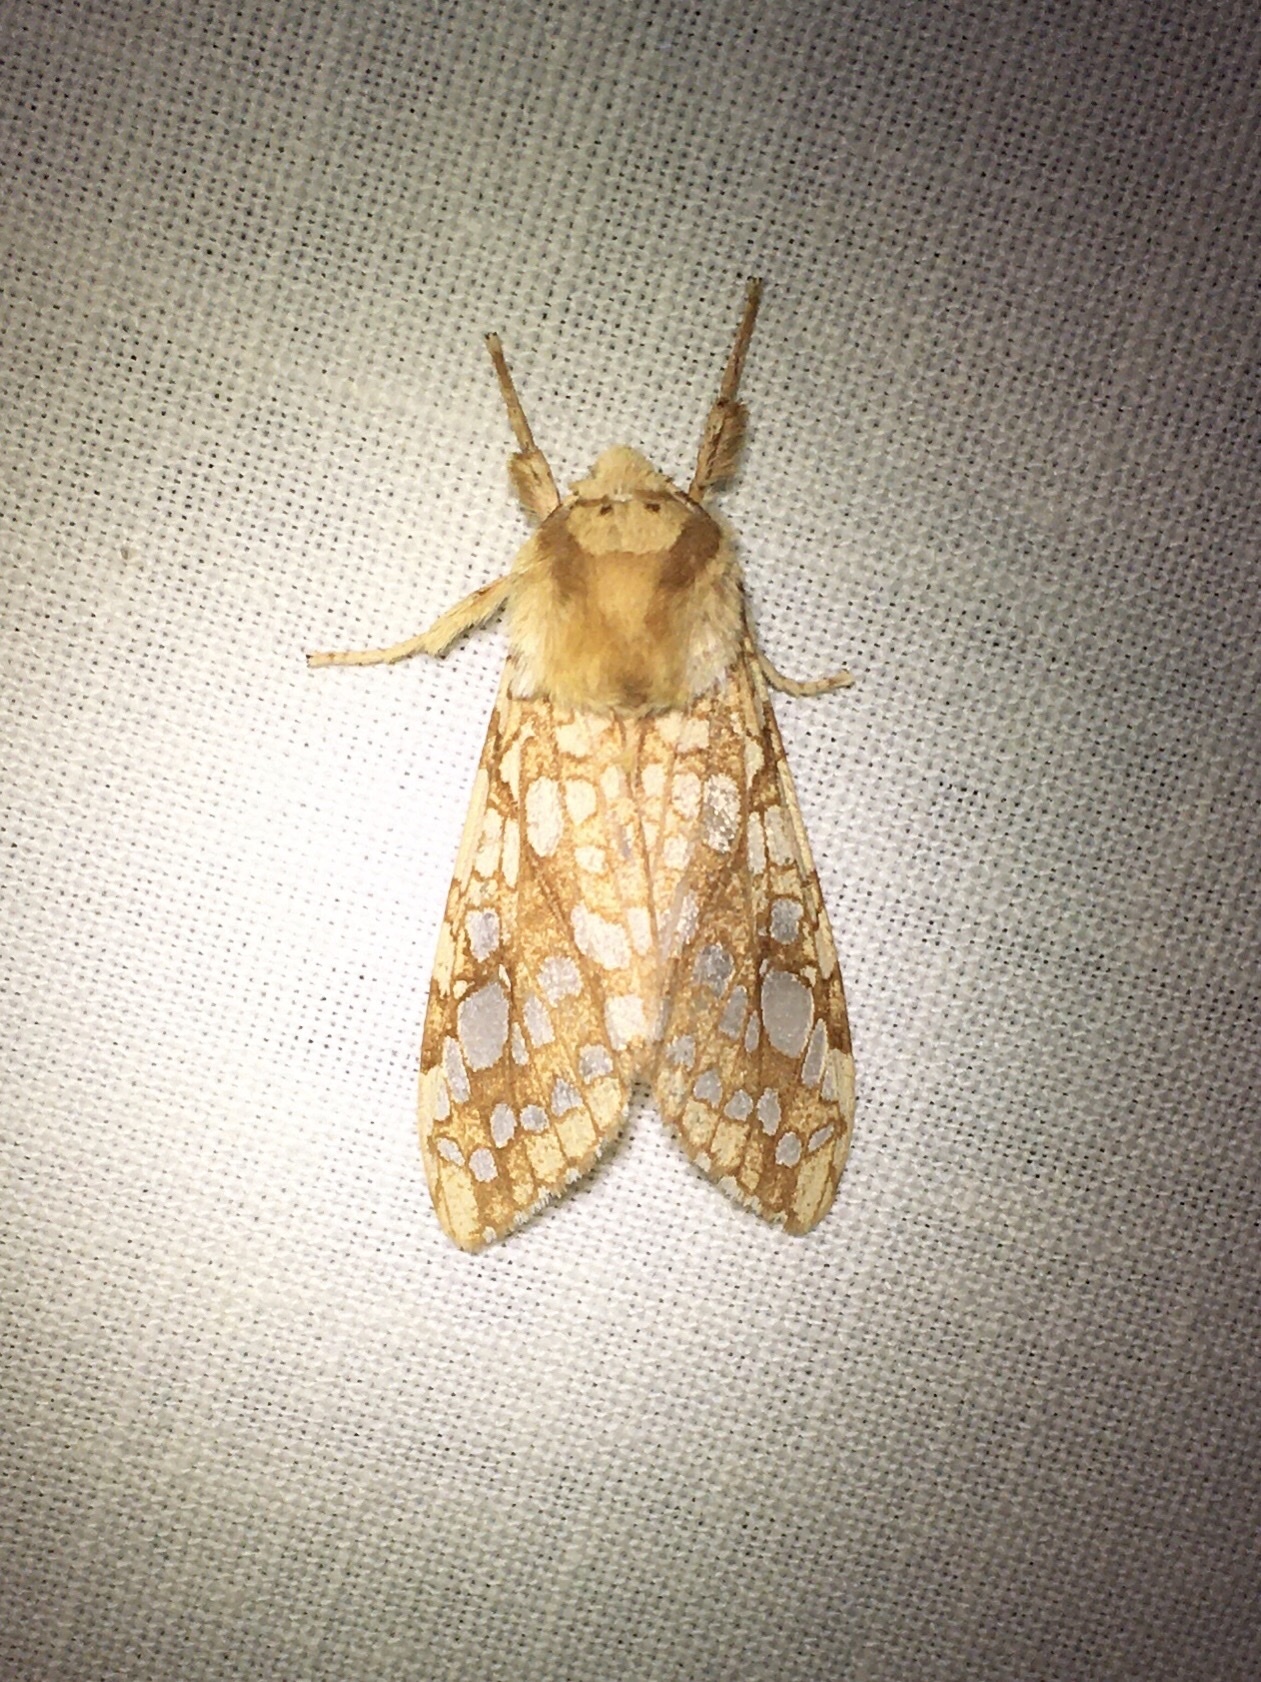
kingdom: Animalia
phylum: Arthropoda
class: Insecta
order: Lepidoptera
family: Erebidae
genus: Lophocampa
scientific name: Lophocampa caryae
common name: Hickory tussock moth
